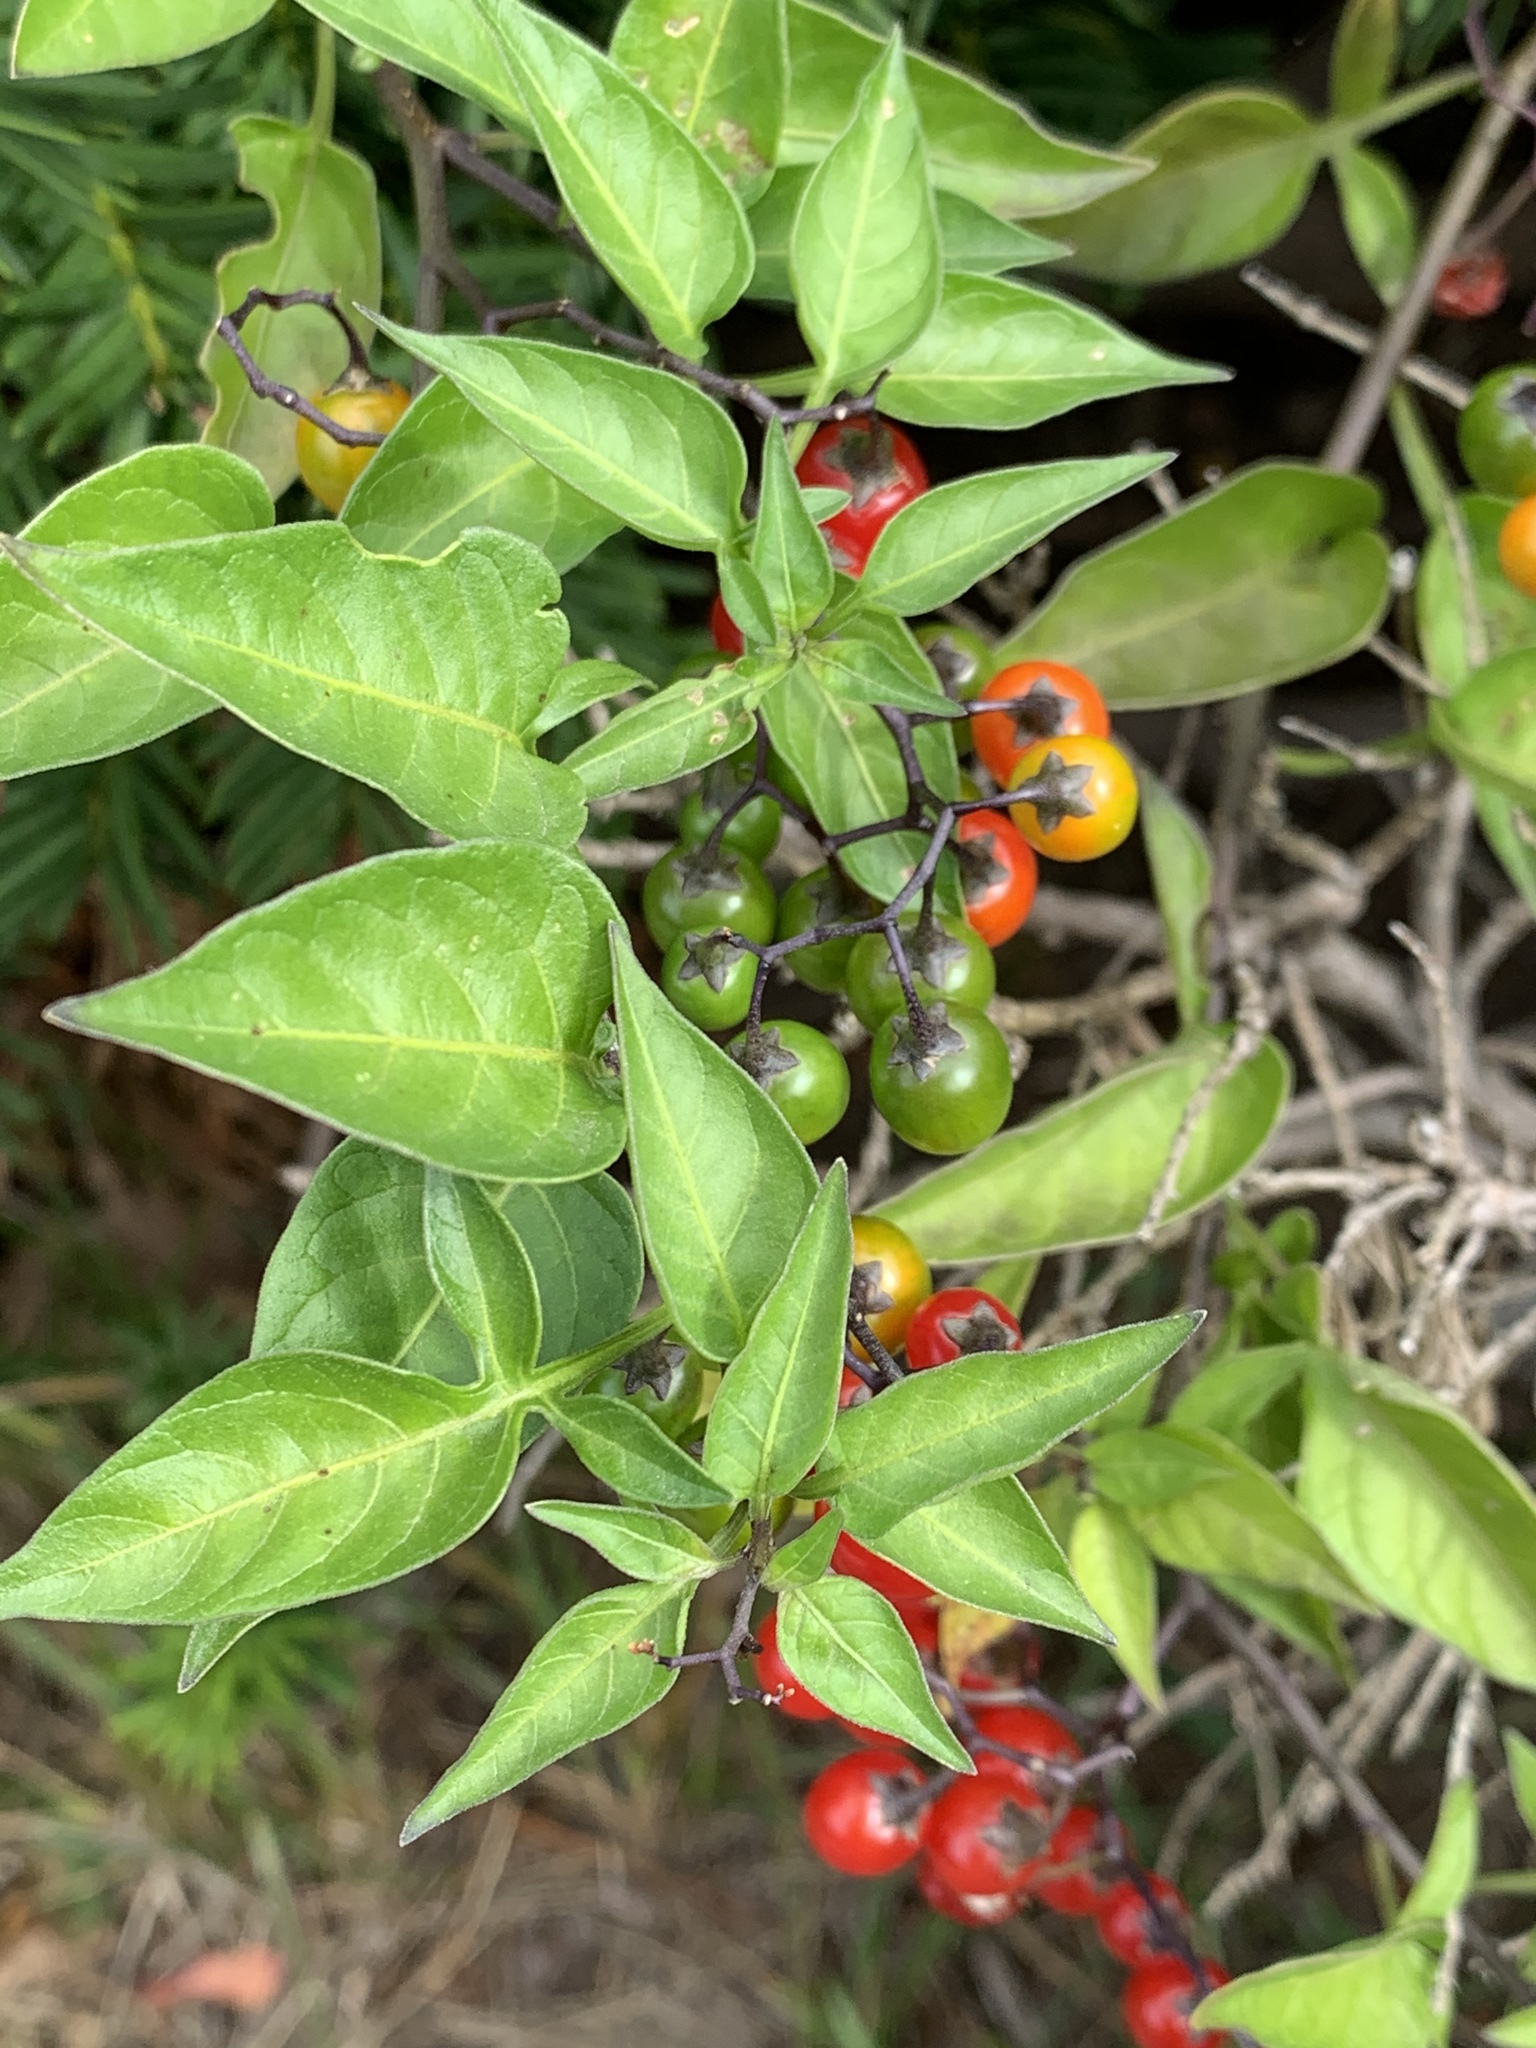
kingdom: Plantae
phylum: Tracheophyta
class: Magnoliopsida
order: Solanales
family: Solanaceae
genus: Solanum
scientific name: Solanum dulcamara
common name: Climbing nightshade
